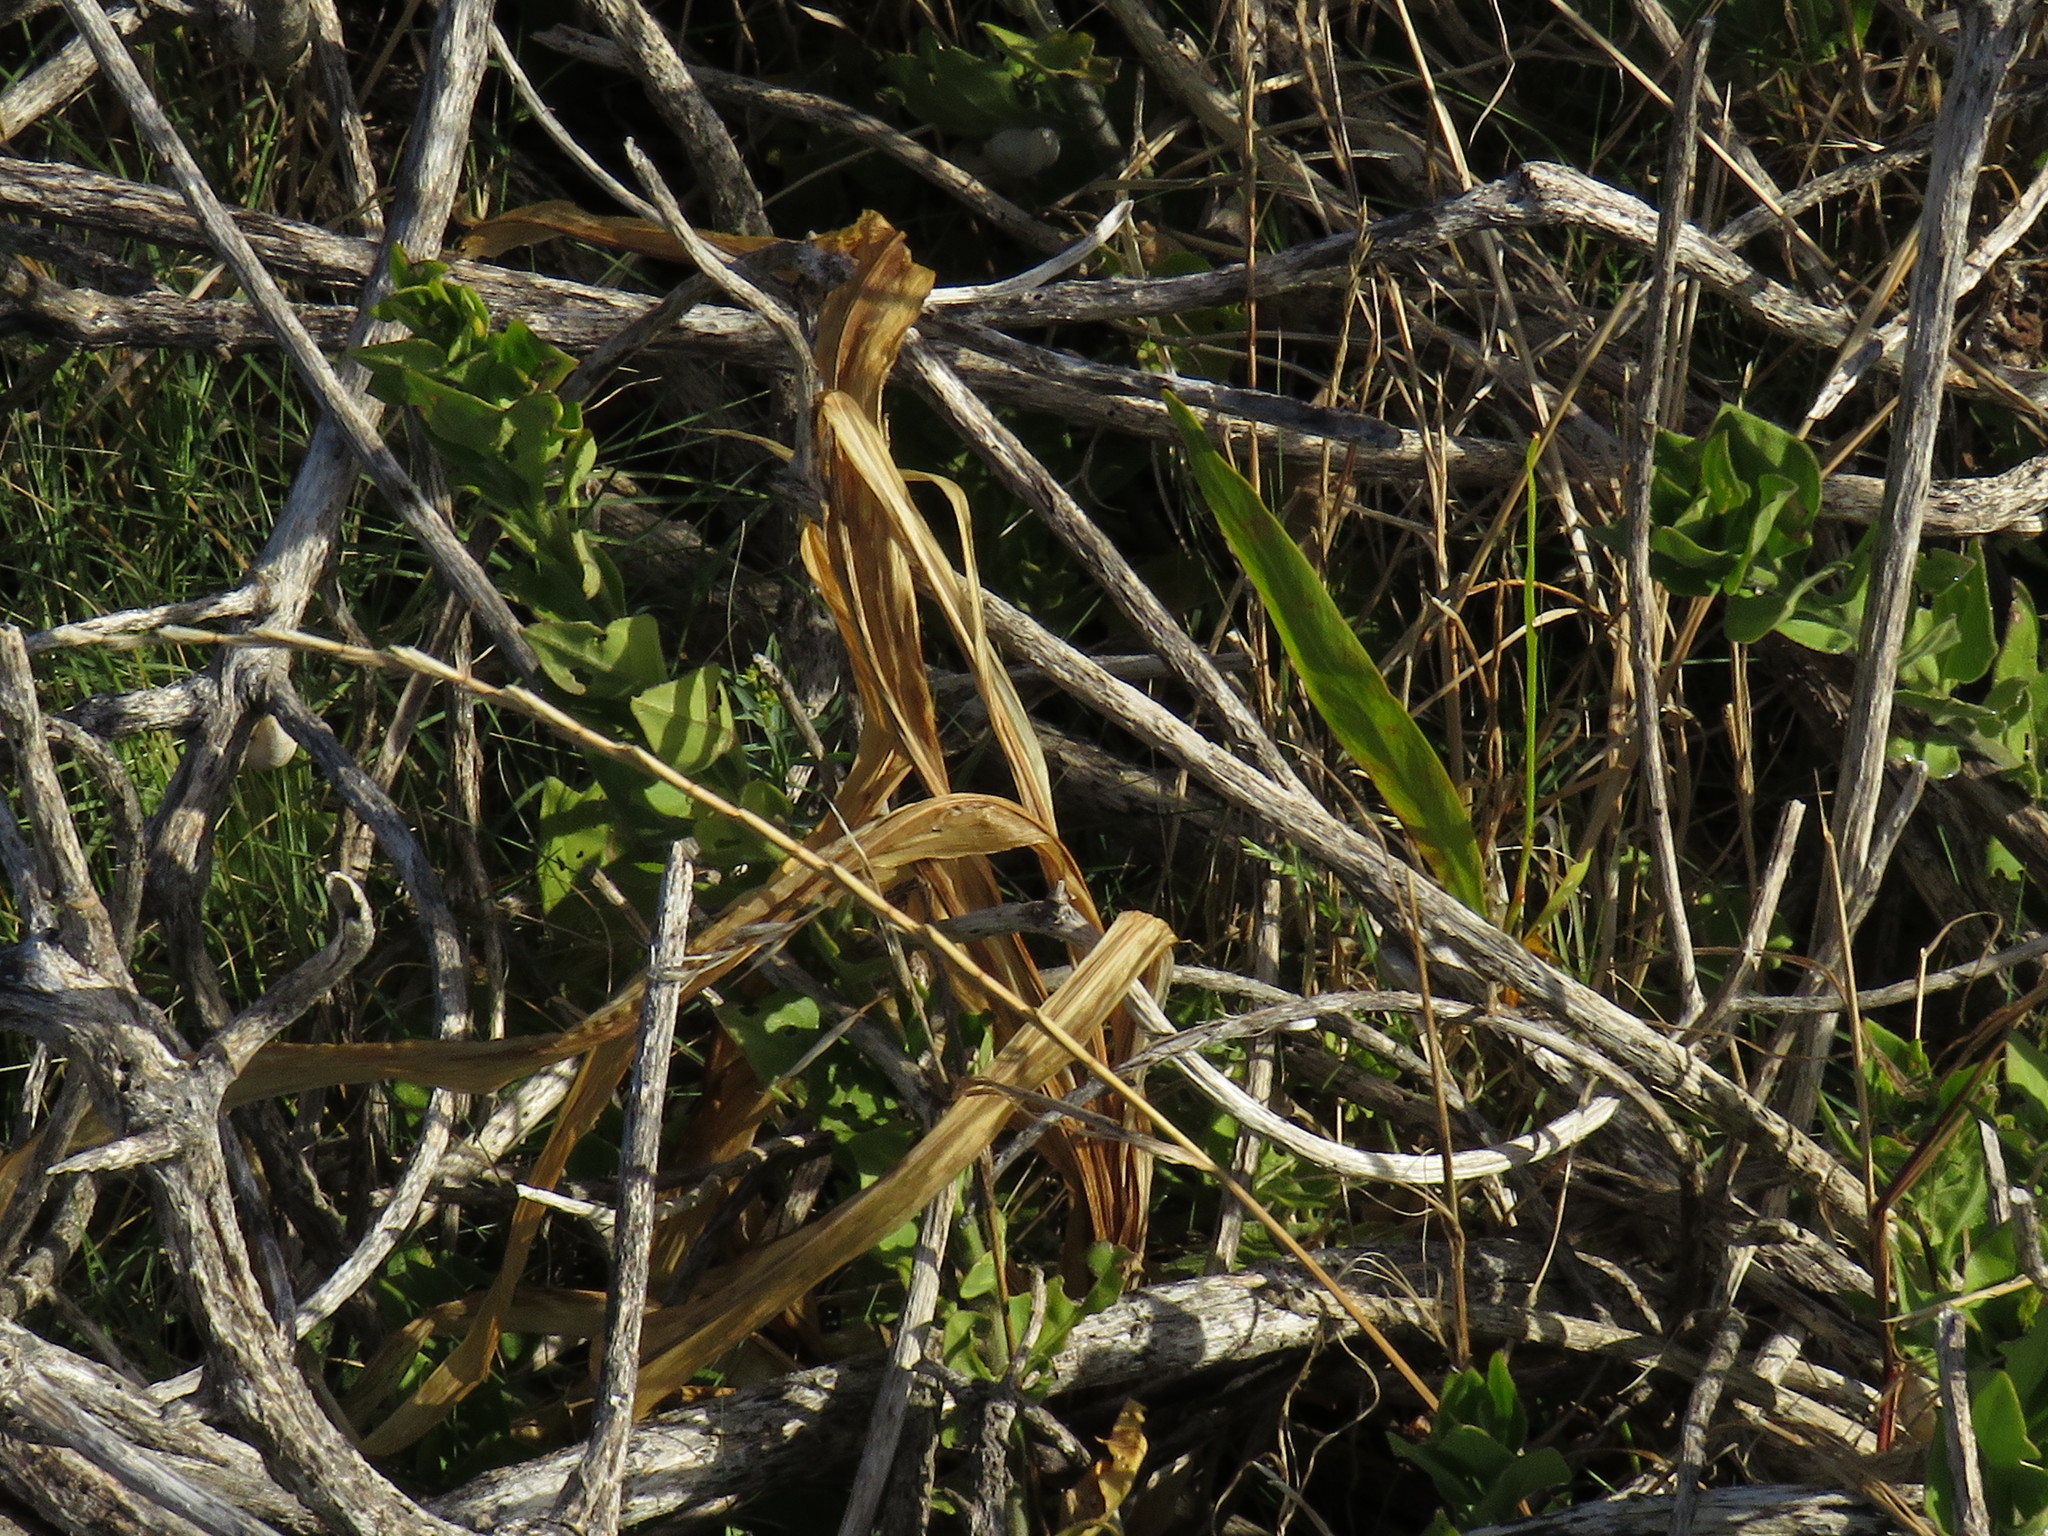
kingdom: Plantae
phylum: Tracheophyta
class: Magnoliopsida
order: Fabales
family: Fabaceae
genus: Acacia
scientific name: Acacia saligna
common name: Orange wattle
